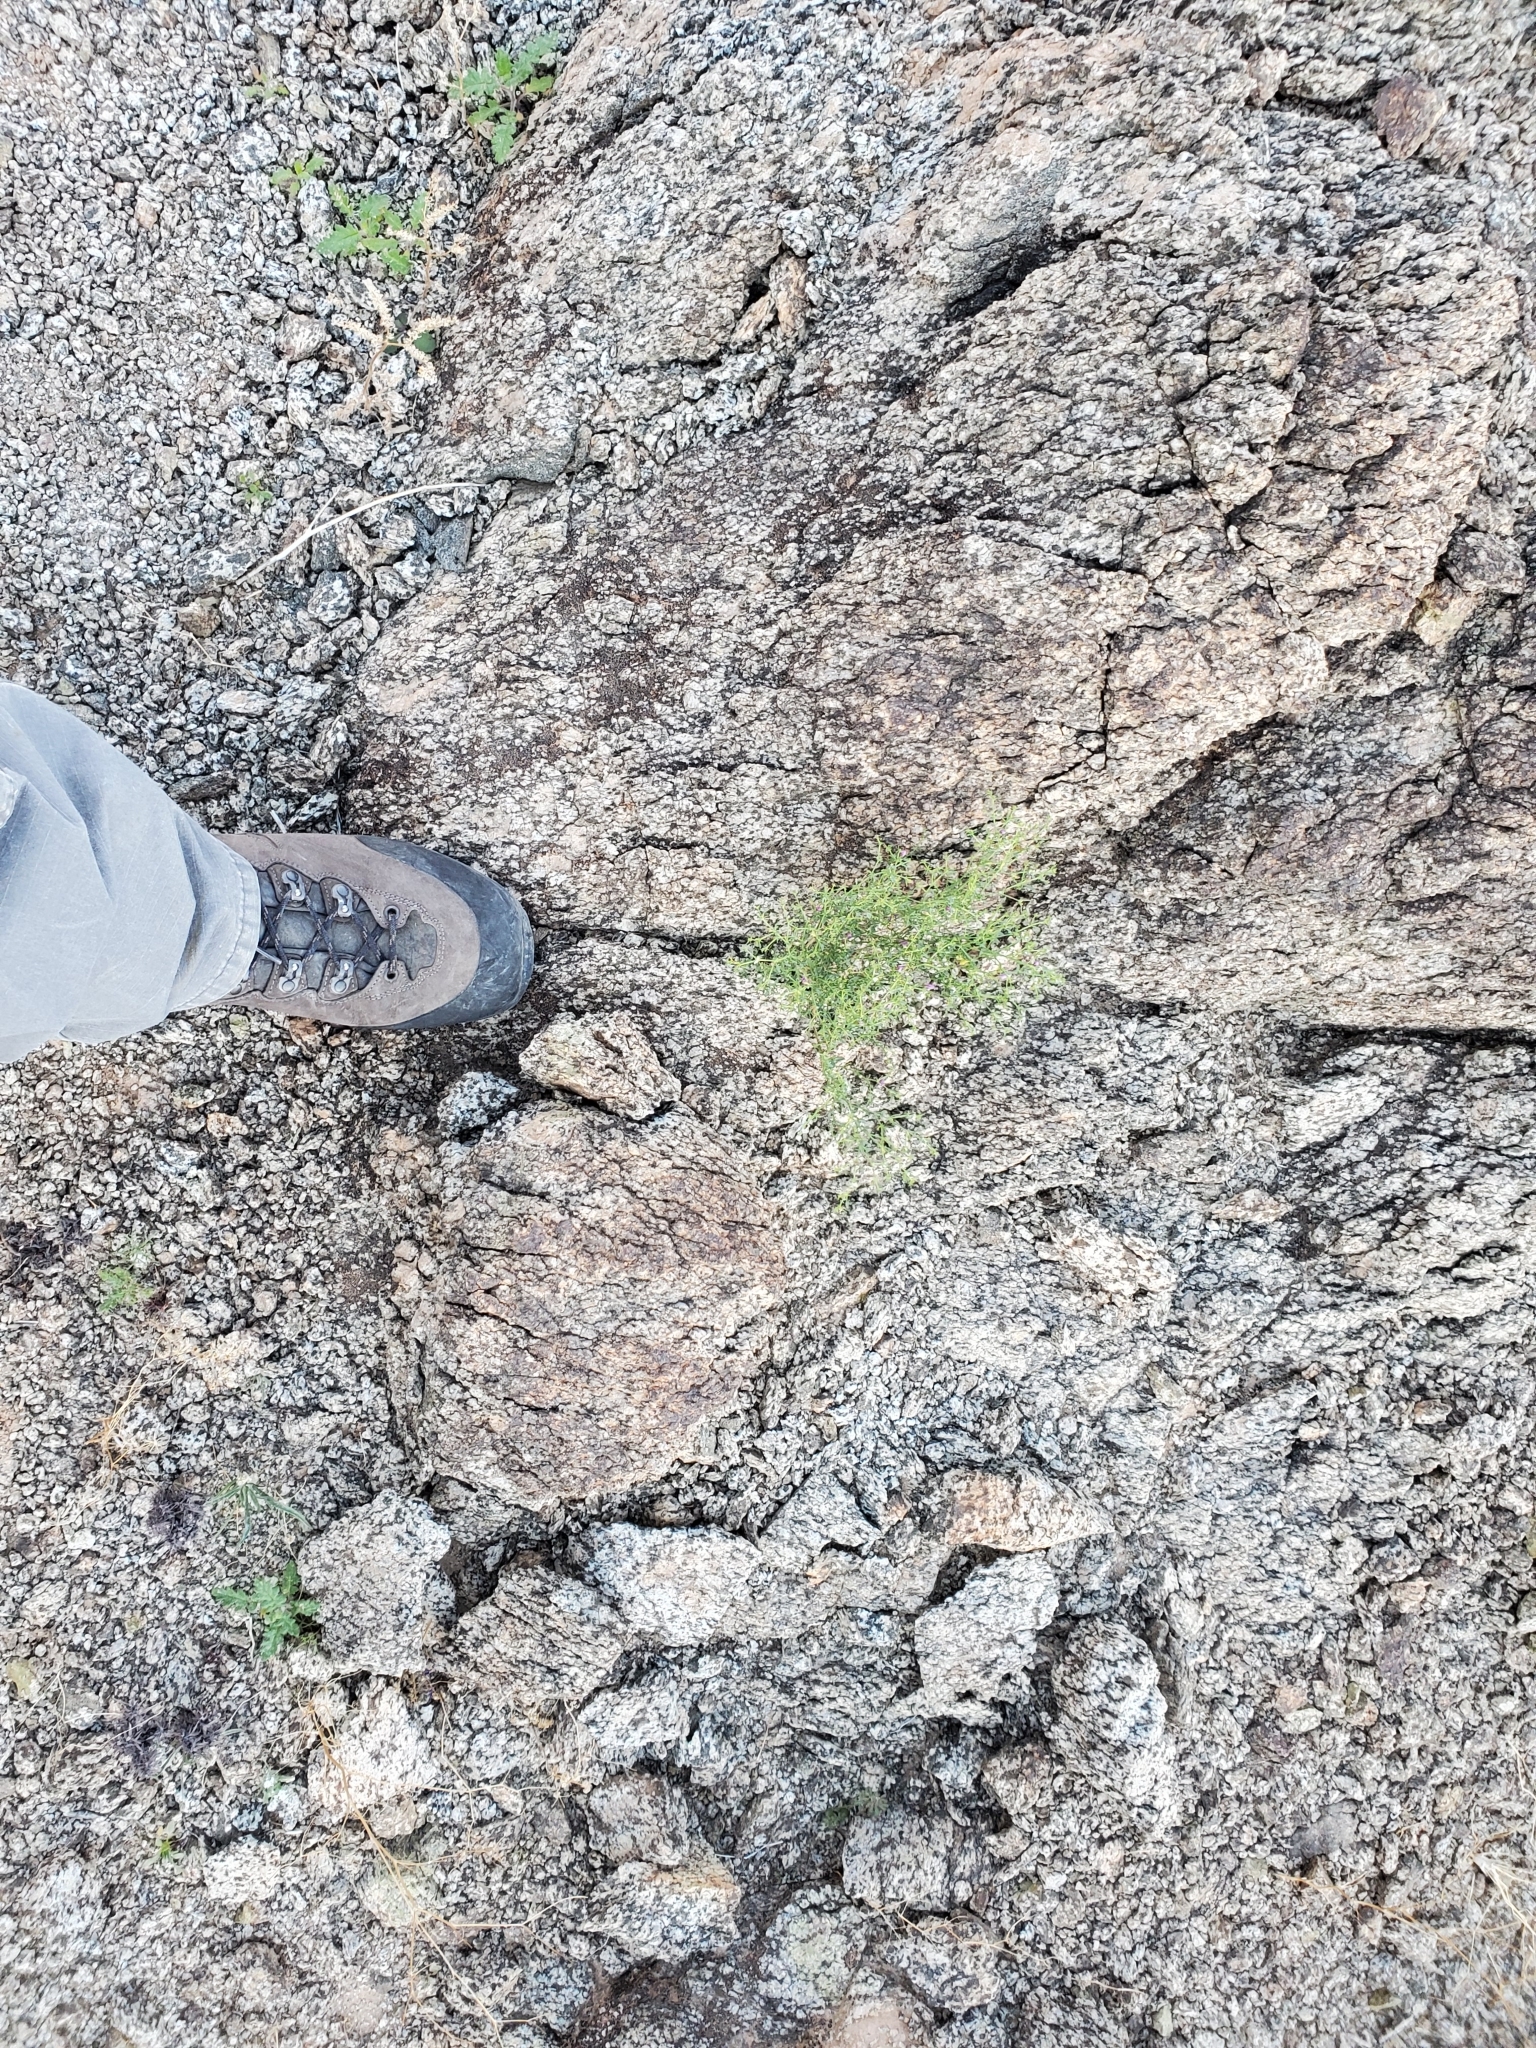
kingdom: Plantae
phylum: Tracheophyta
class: Magnoliopsida
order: Zygophyllales
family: Zygophyllaceae
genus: Fagonia
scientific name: Fagonia laevis
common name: California fagonbush
